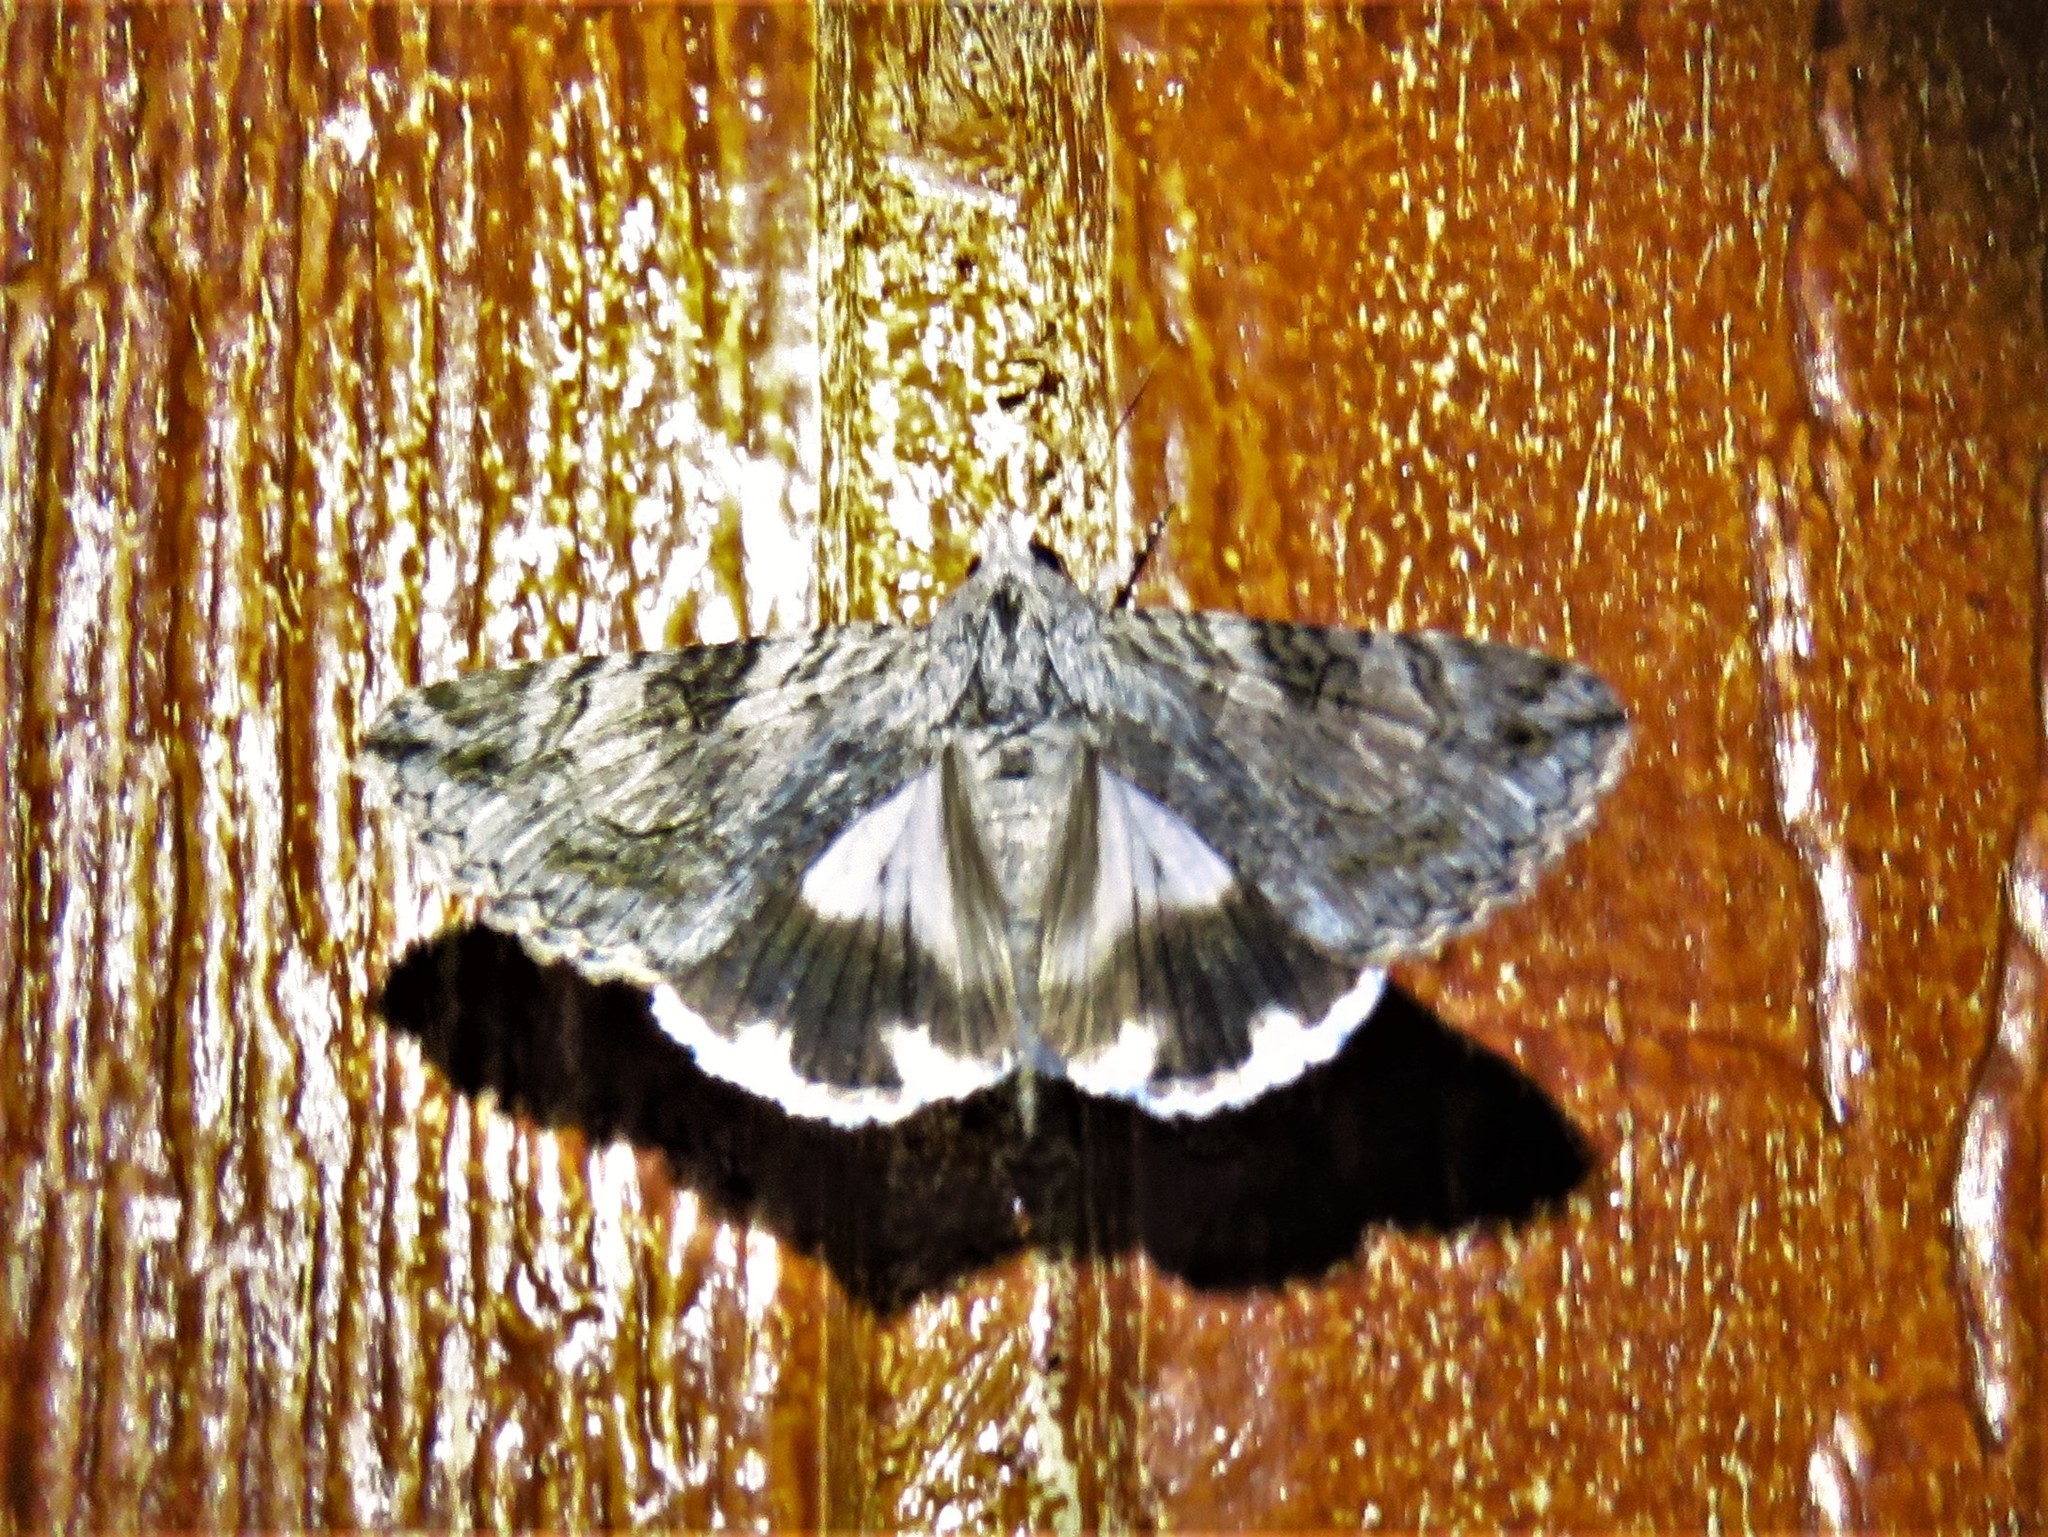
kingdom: Animalia
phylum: Arthropoda
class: Insecta
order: Lepidoptera
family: Erebidae
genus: Melipotis
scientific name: Melipotis jucunda
